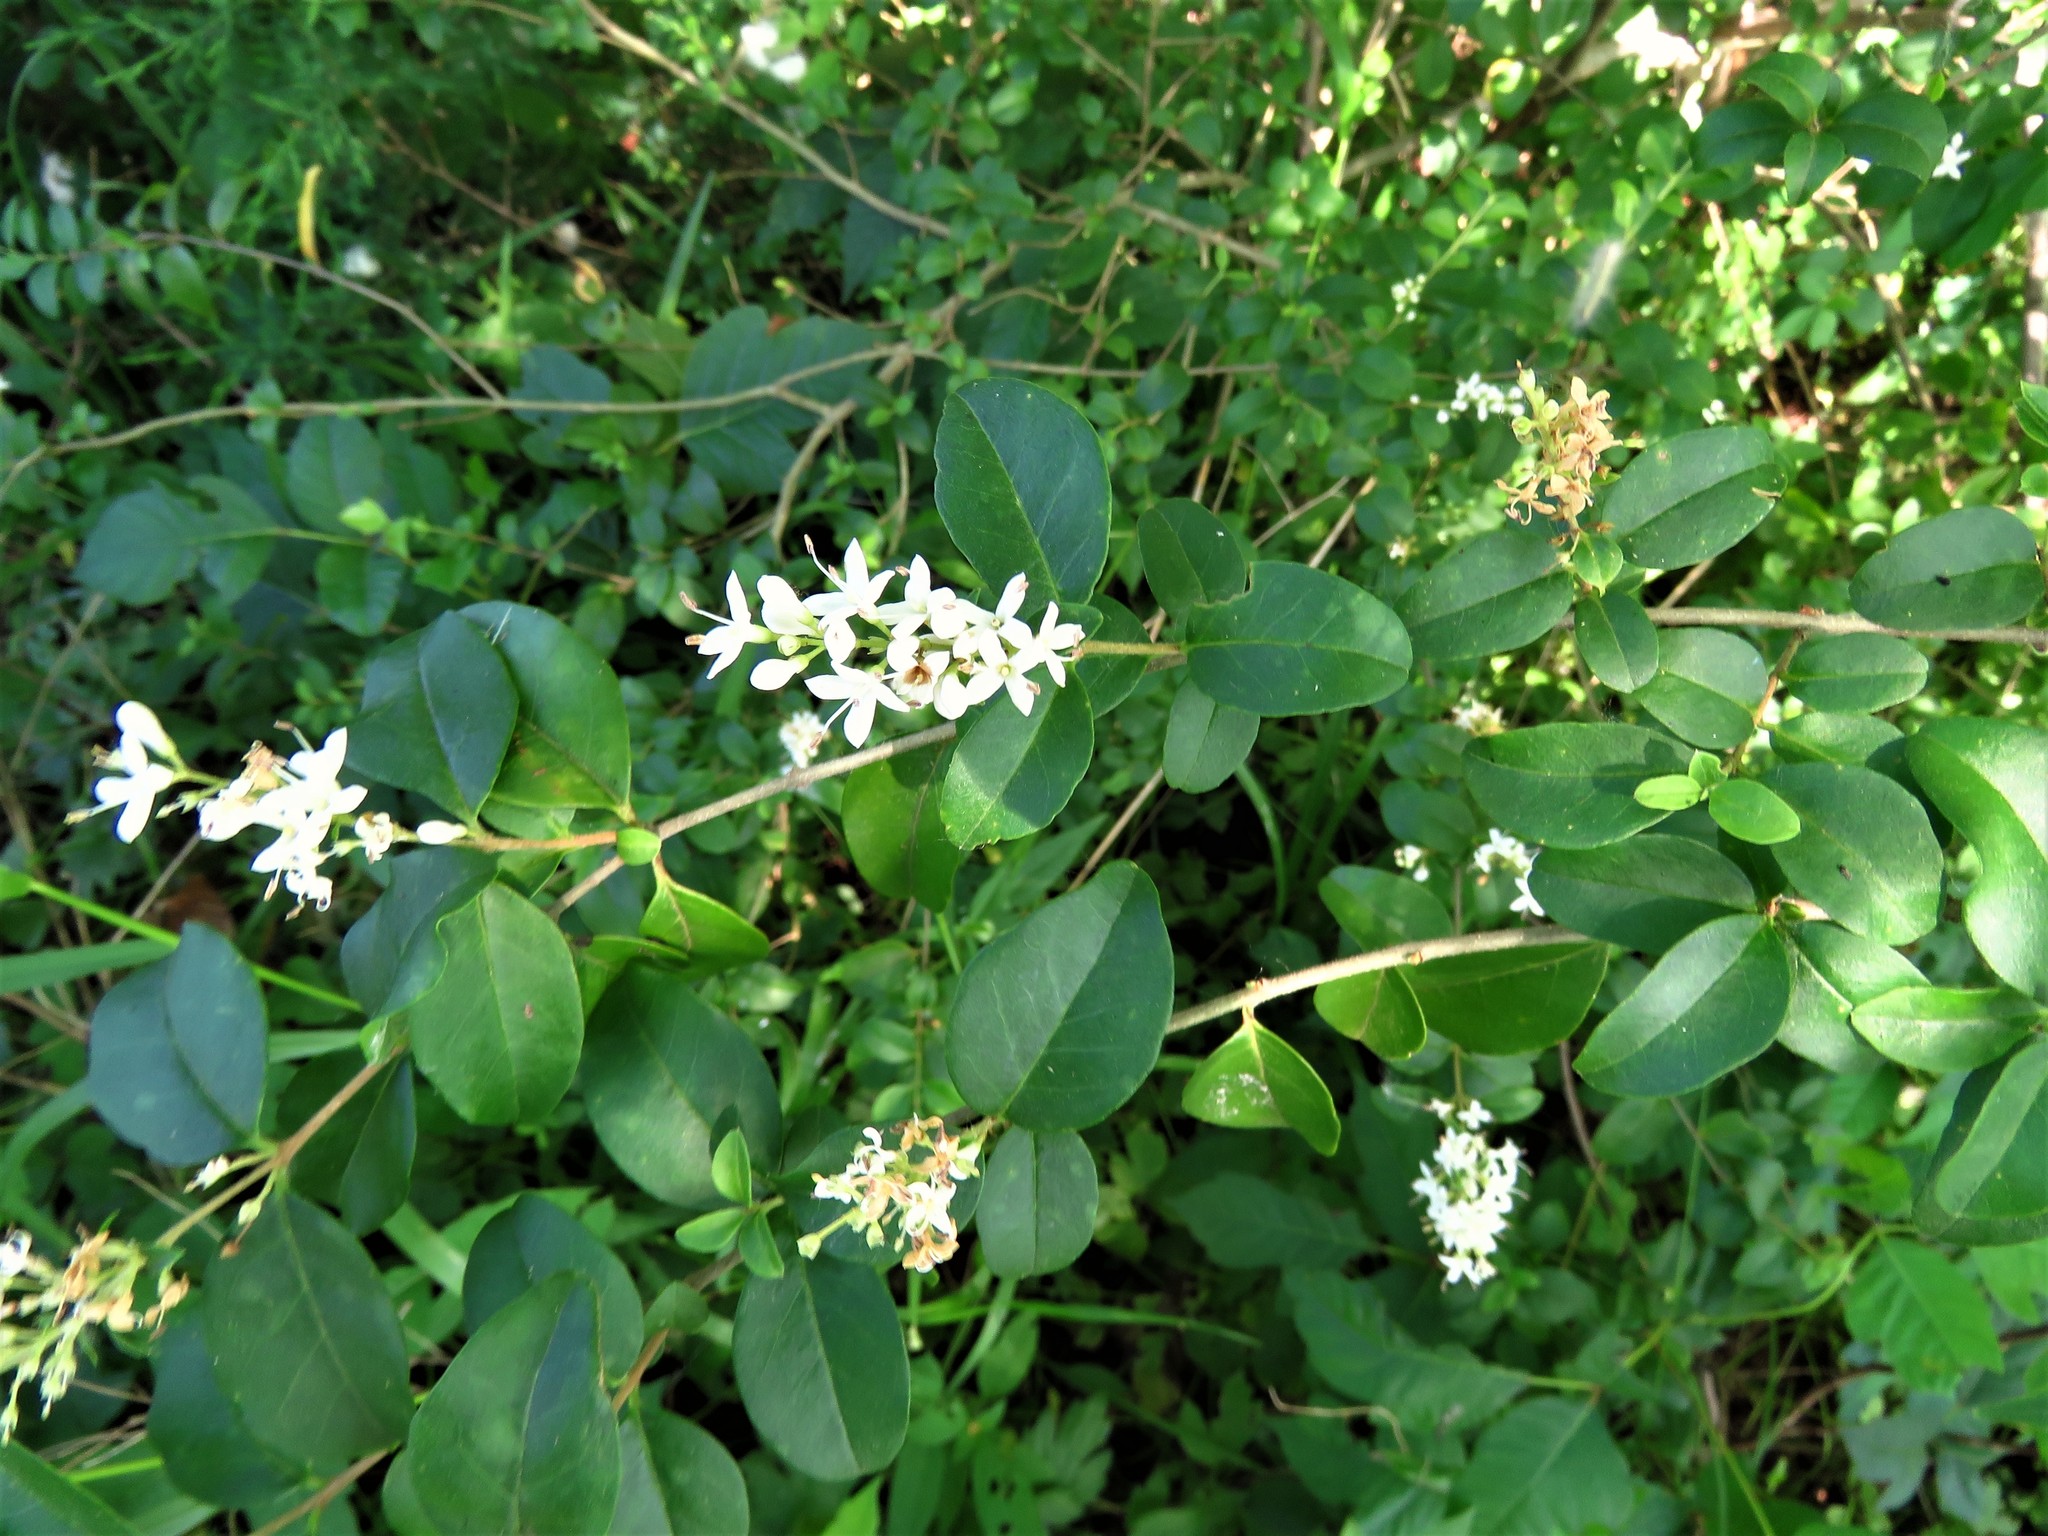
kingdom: Plantae
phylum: Tracheophyta
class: Magnoliopsida
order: Lamiales
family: Oleaceae
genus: Ligustrum
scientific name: Ligustrum sinense
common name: Chinese privet
